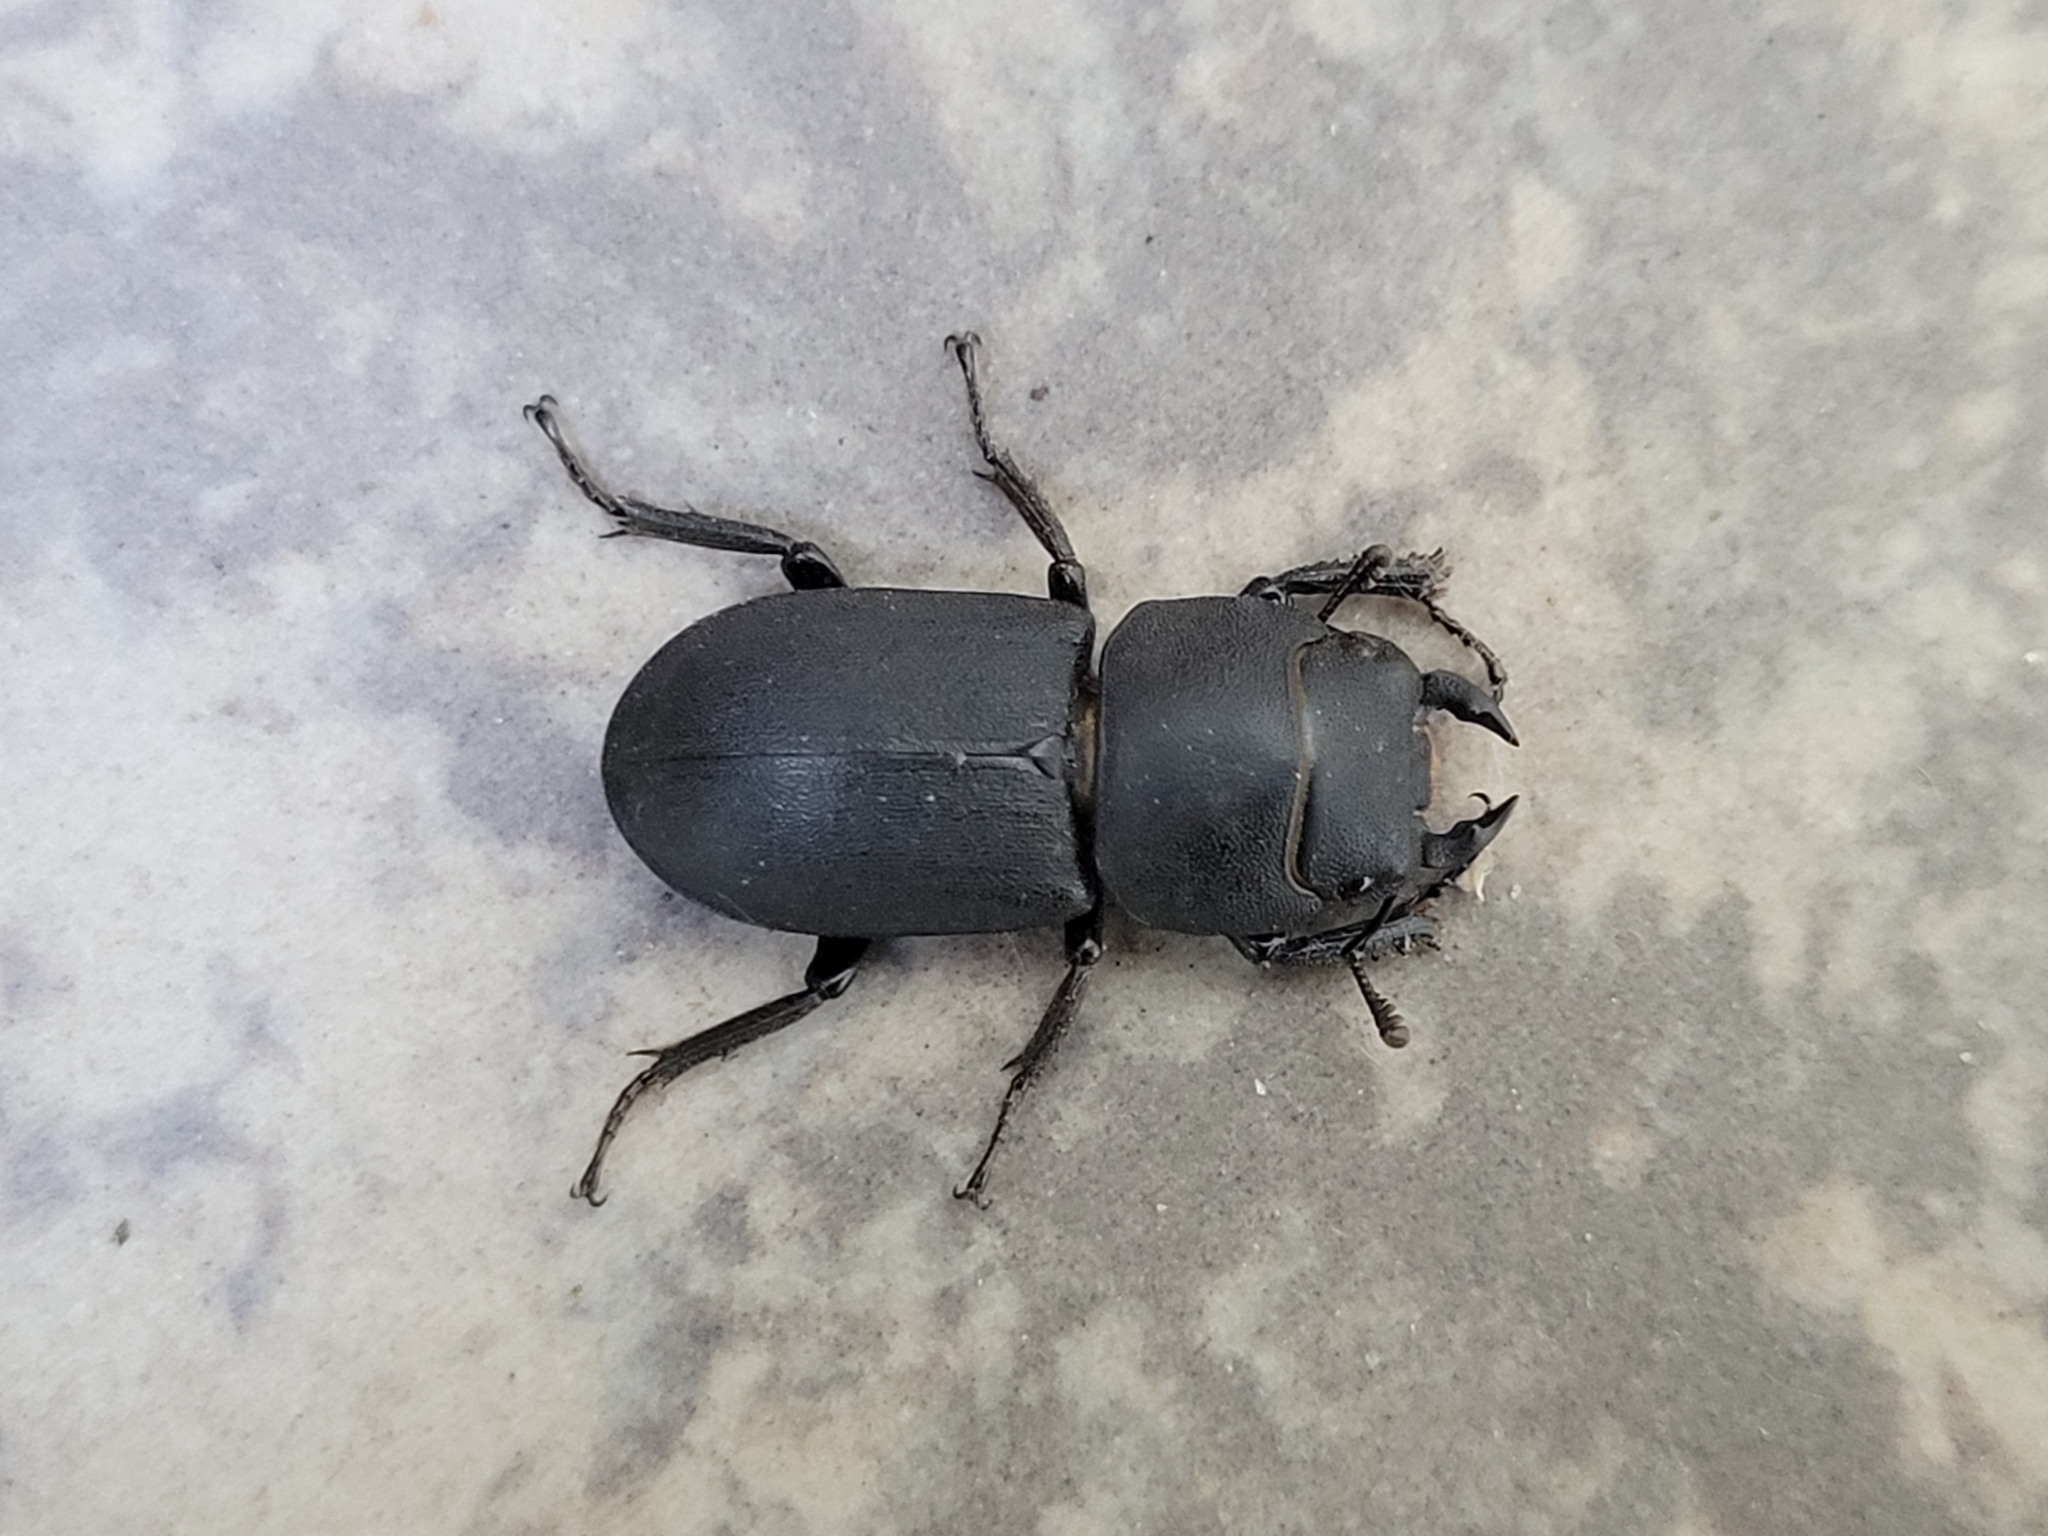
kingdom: Animalia
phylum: Arthropoda
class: Insecta
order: Coleoptera
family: Lucanidae
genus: Dorcus
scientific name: Dorcus parallelipipedus
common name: Lesser stag beetle
